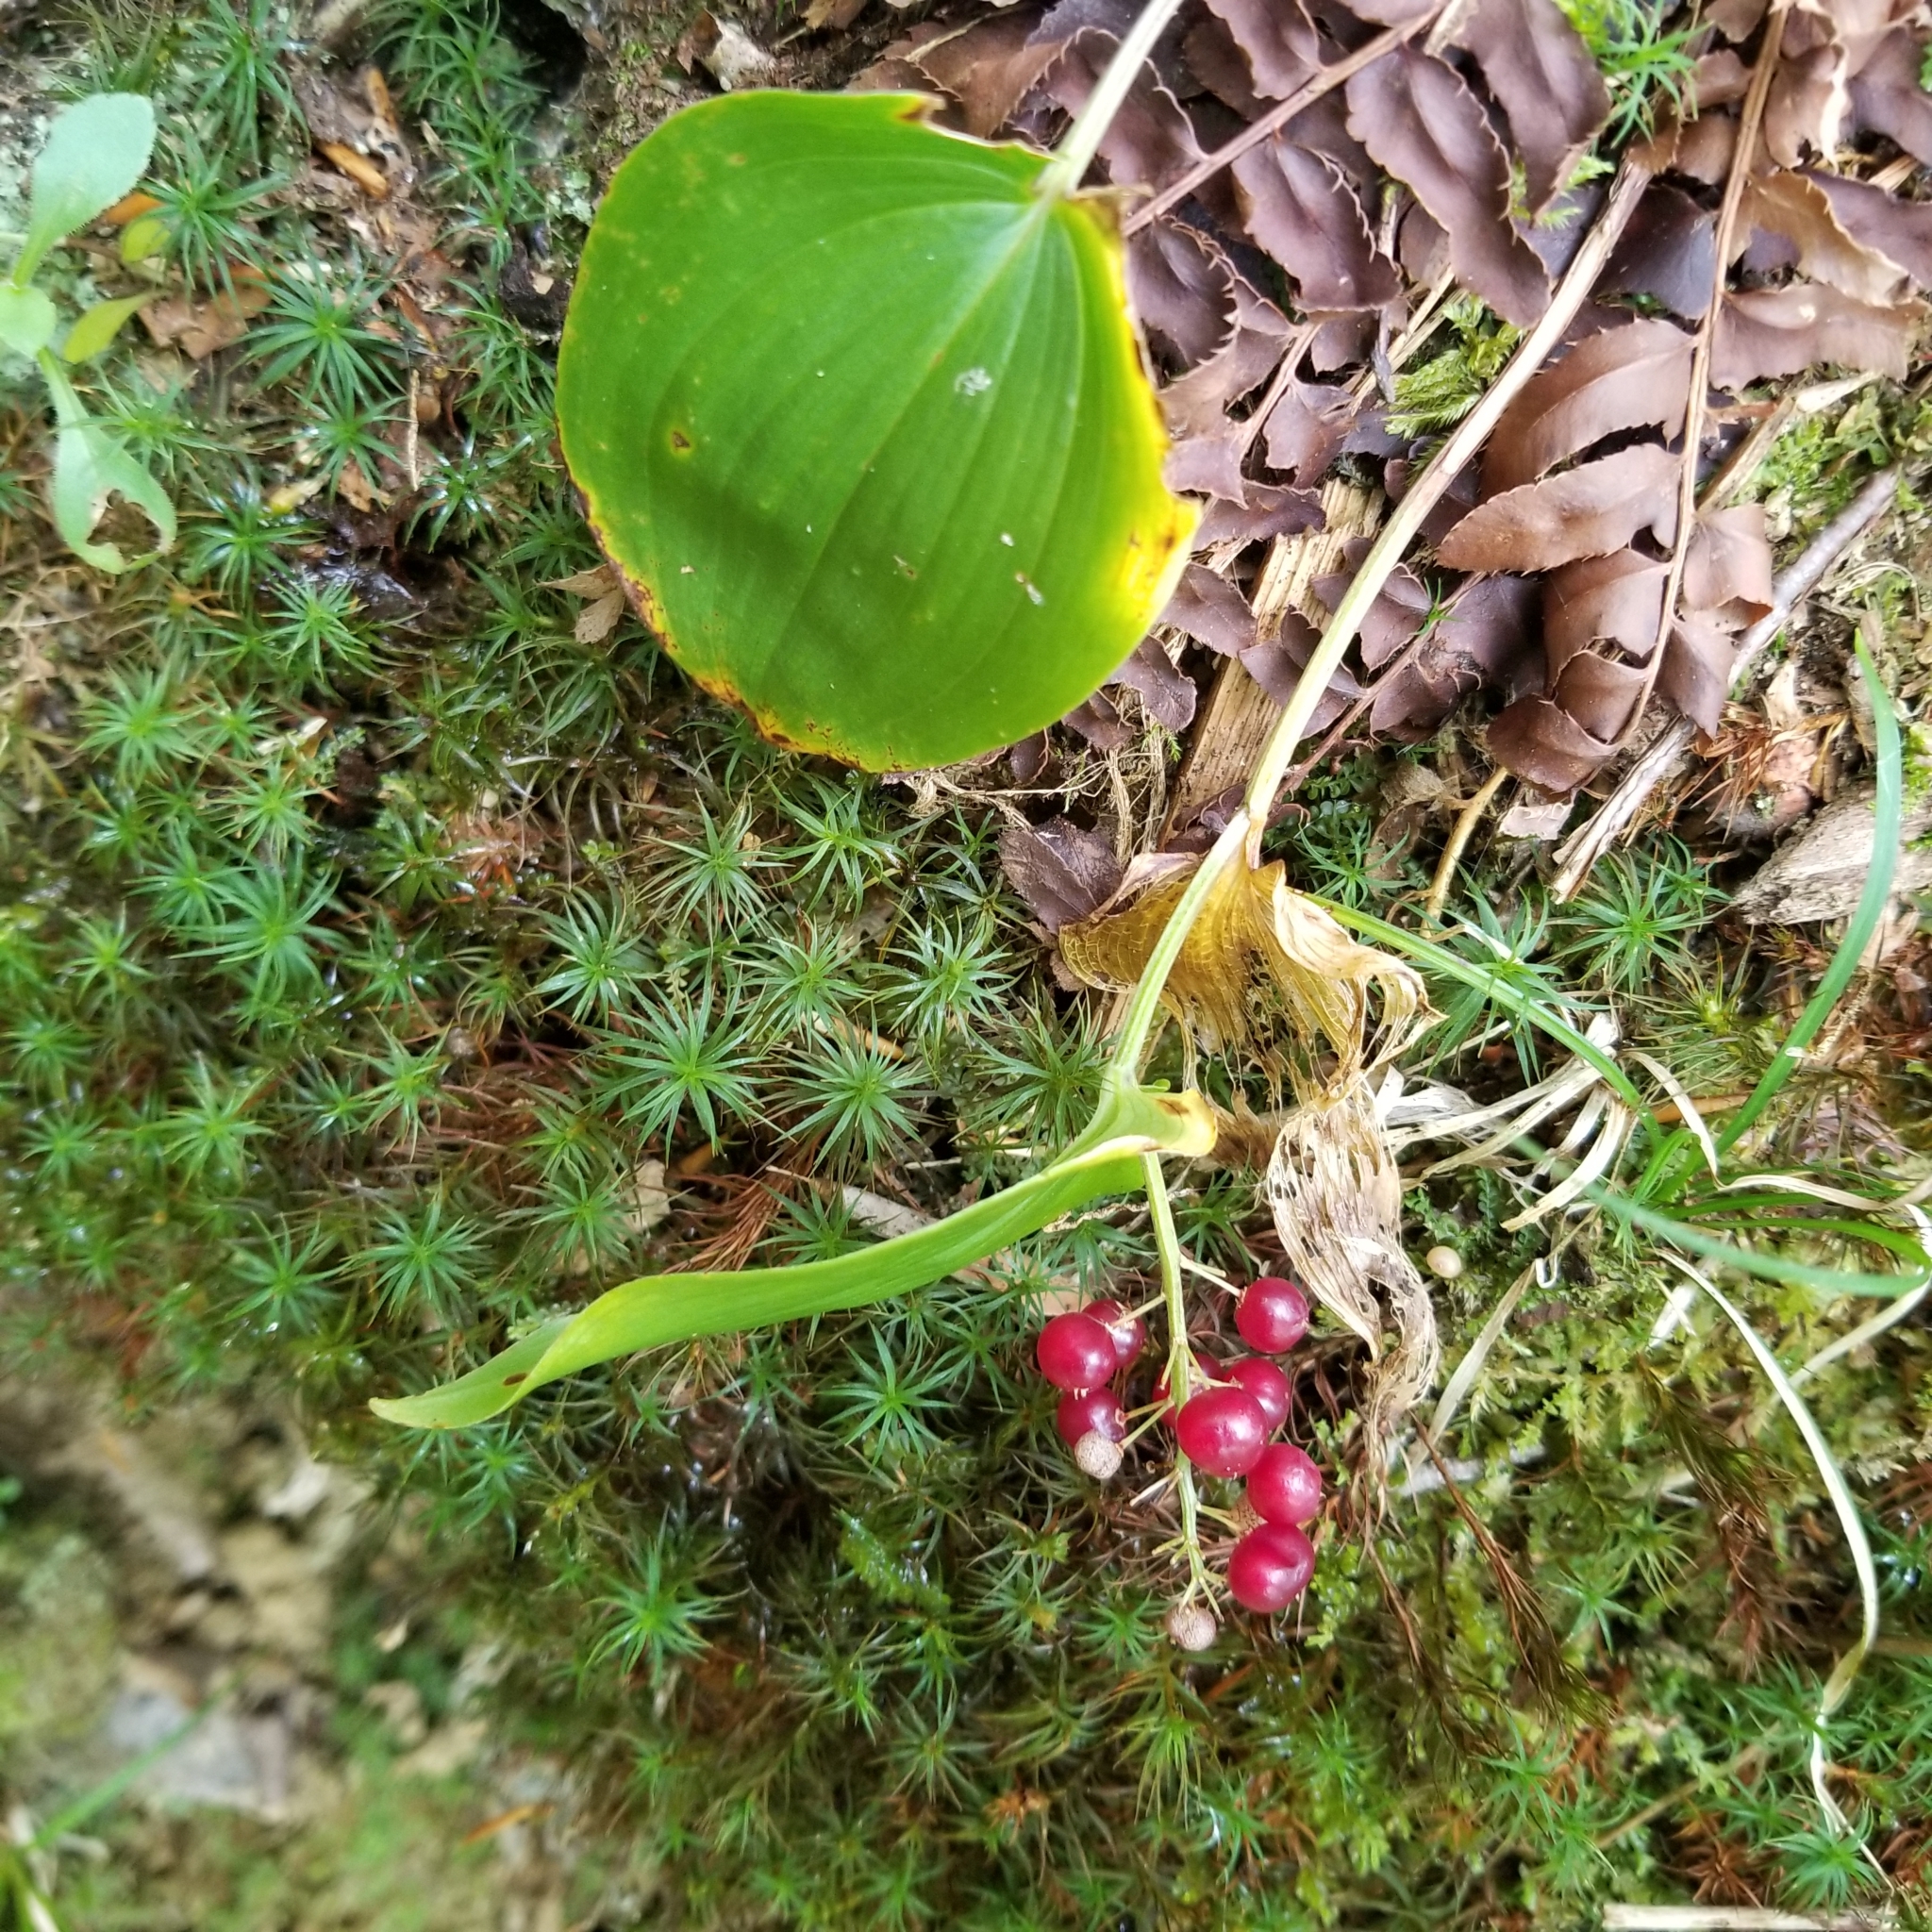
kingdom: Plantae
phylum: Tracheophyta
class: Liliopsida
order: Asparagales
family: Asparagaceae
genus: Maianthemum
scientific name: Maianthemum canadense
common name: False lily-of-the-valley
